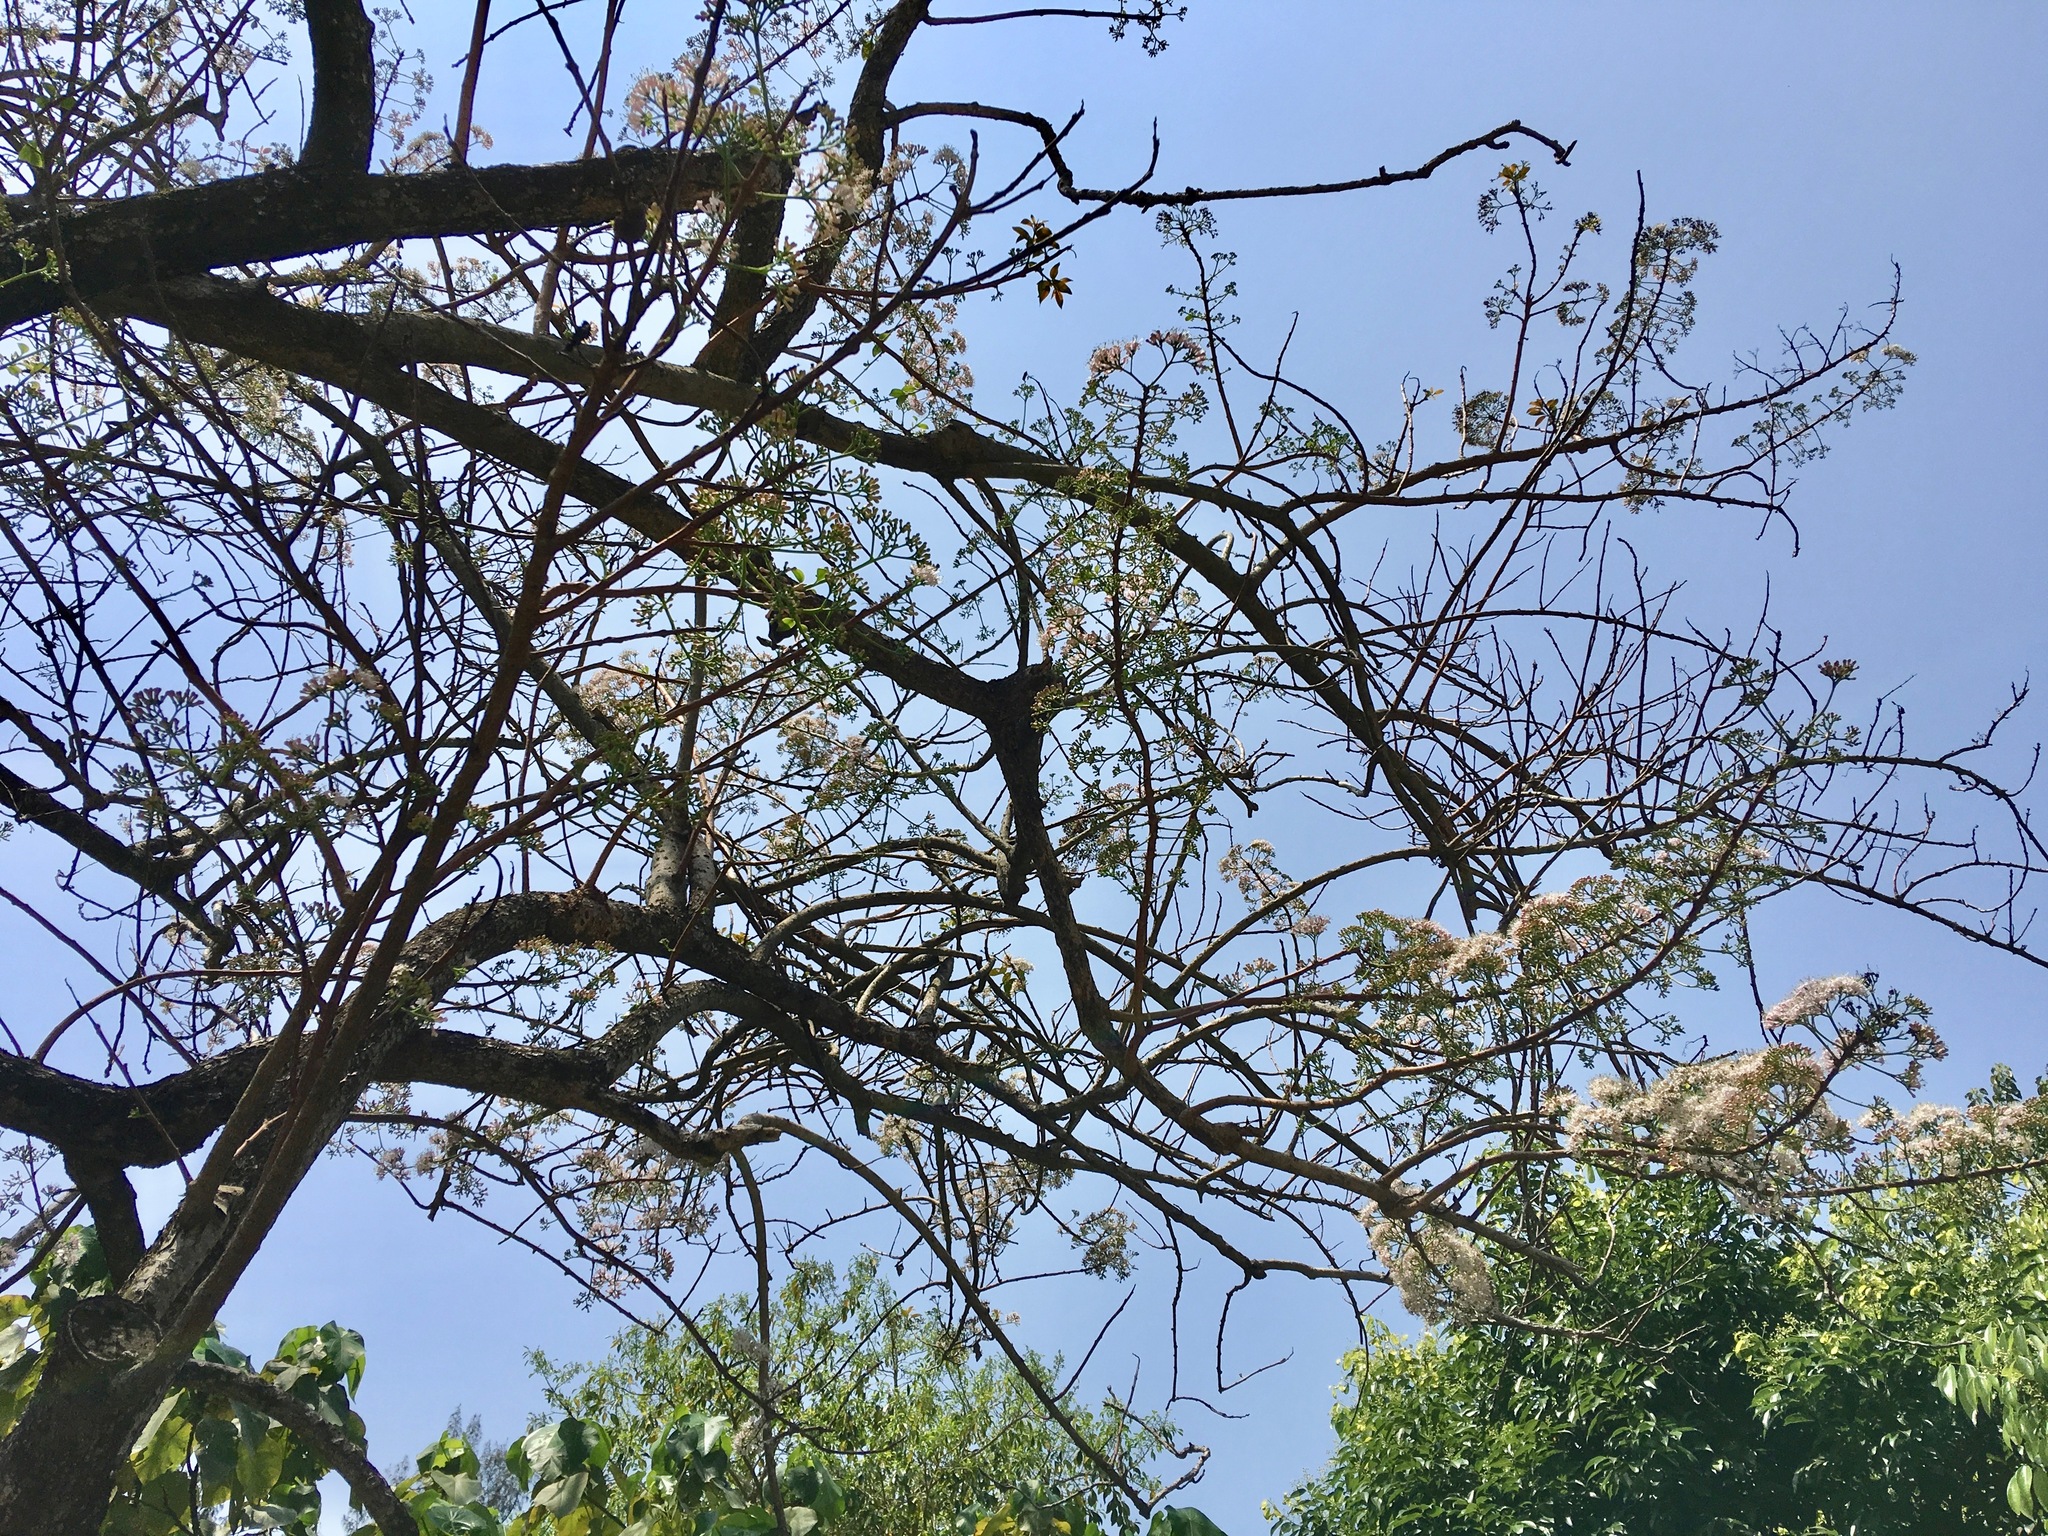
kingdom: Plantae
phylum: Tracheophyta
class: Magnoliopsida
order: Boraginales
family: Ehretiaceae
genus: Ehretia
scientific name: Ehretia longiflora
